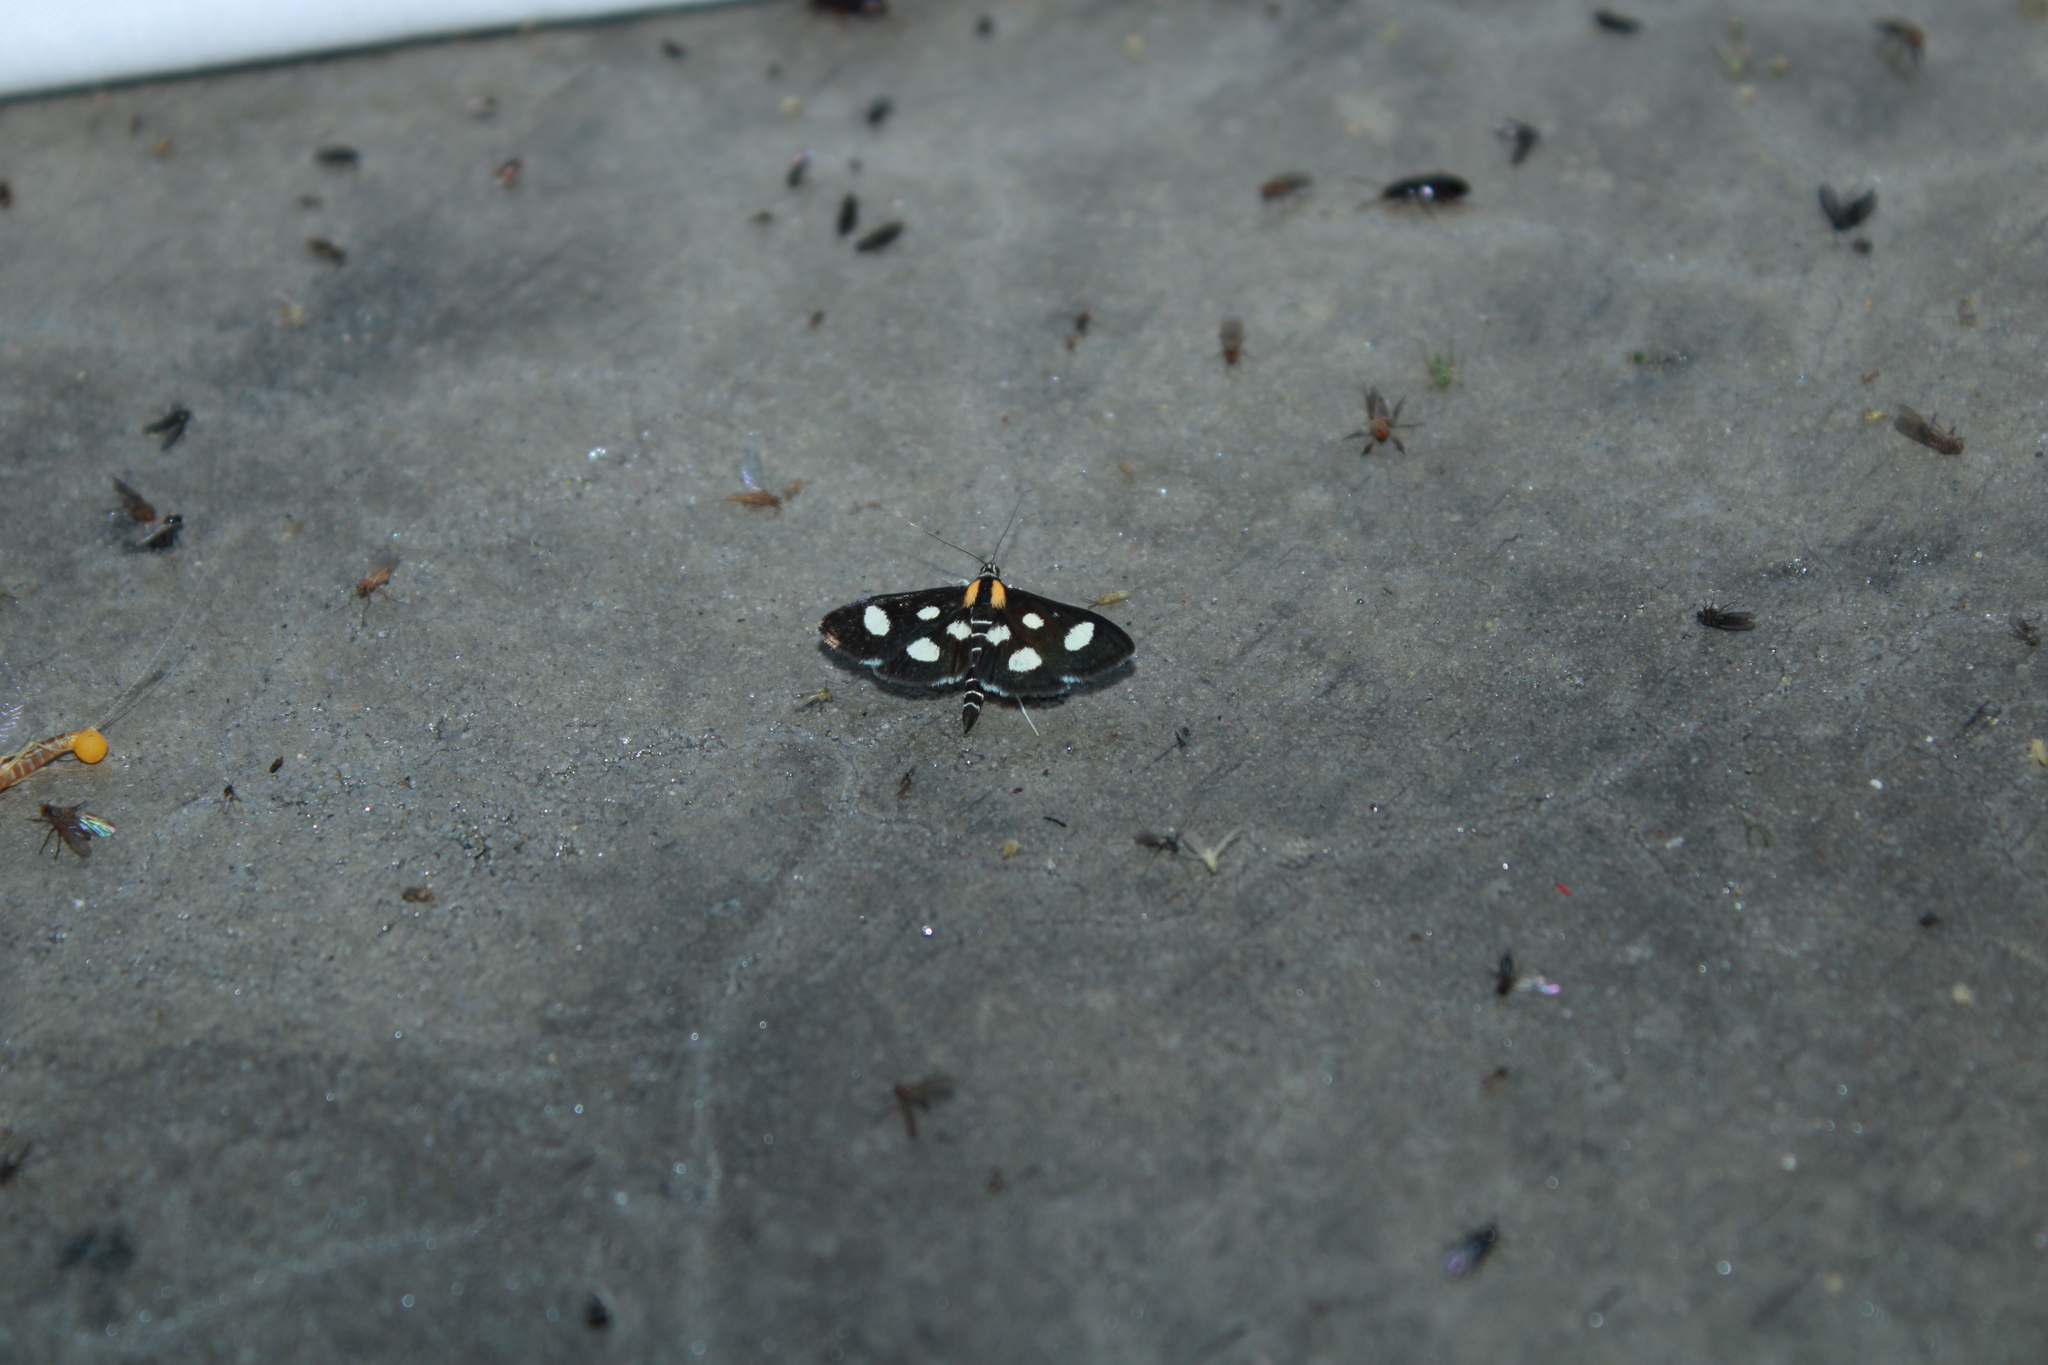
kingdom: Animalia
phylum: Arthropoda
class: Insecta
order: Lepidoptera
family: Crambidae
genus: Anania
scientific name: Anania funebris
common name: White-spotted sable moth
